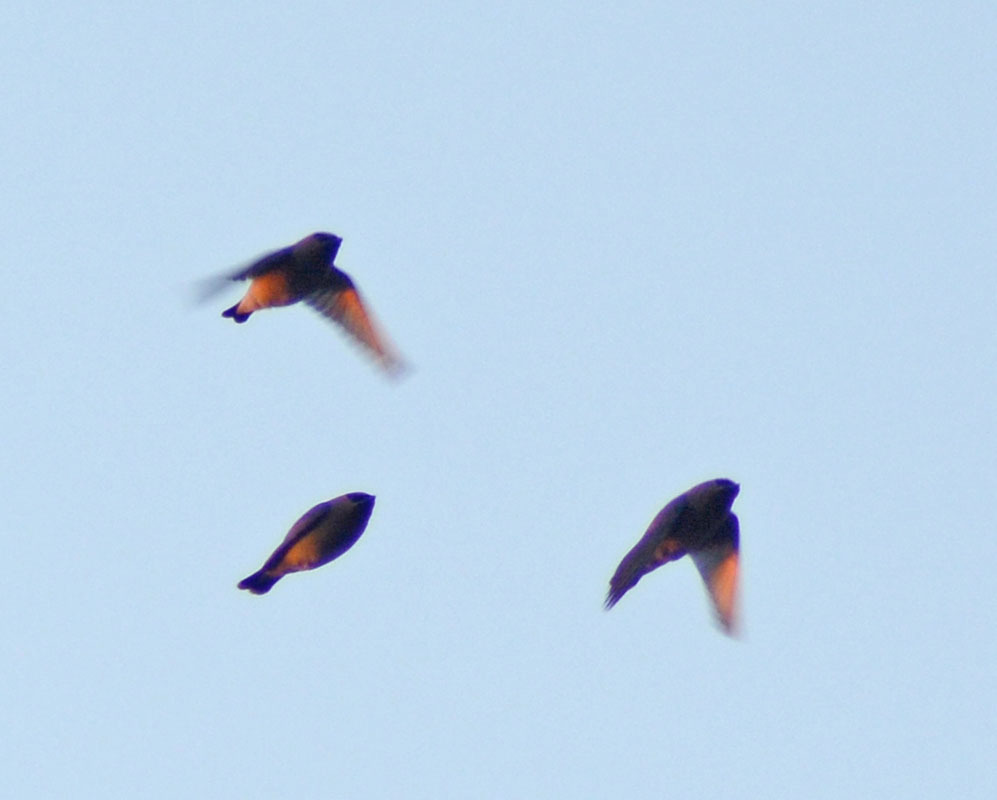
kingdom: Animalia
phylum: Chordata
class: Aves
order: Passeriformes
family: Bombycillidae
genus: Bombycilla
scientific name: Bombycilla cedrorum
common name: Cedar waxwing
